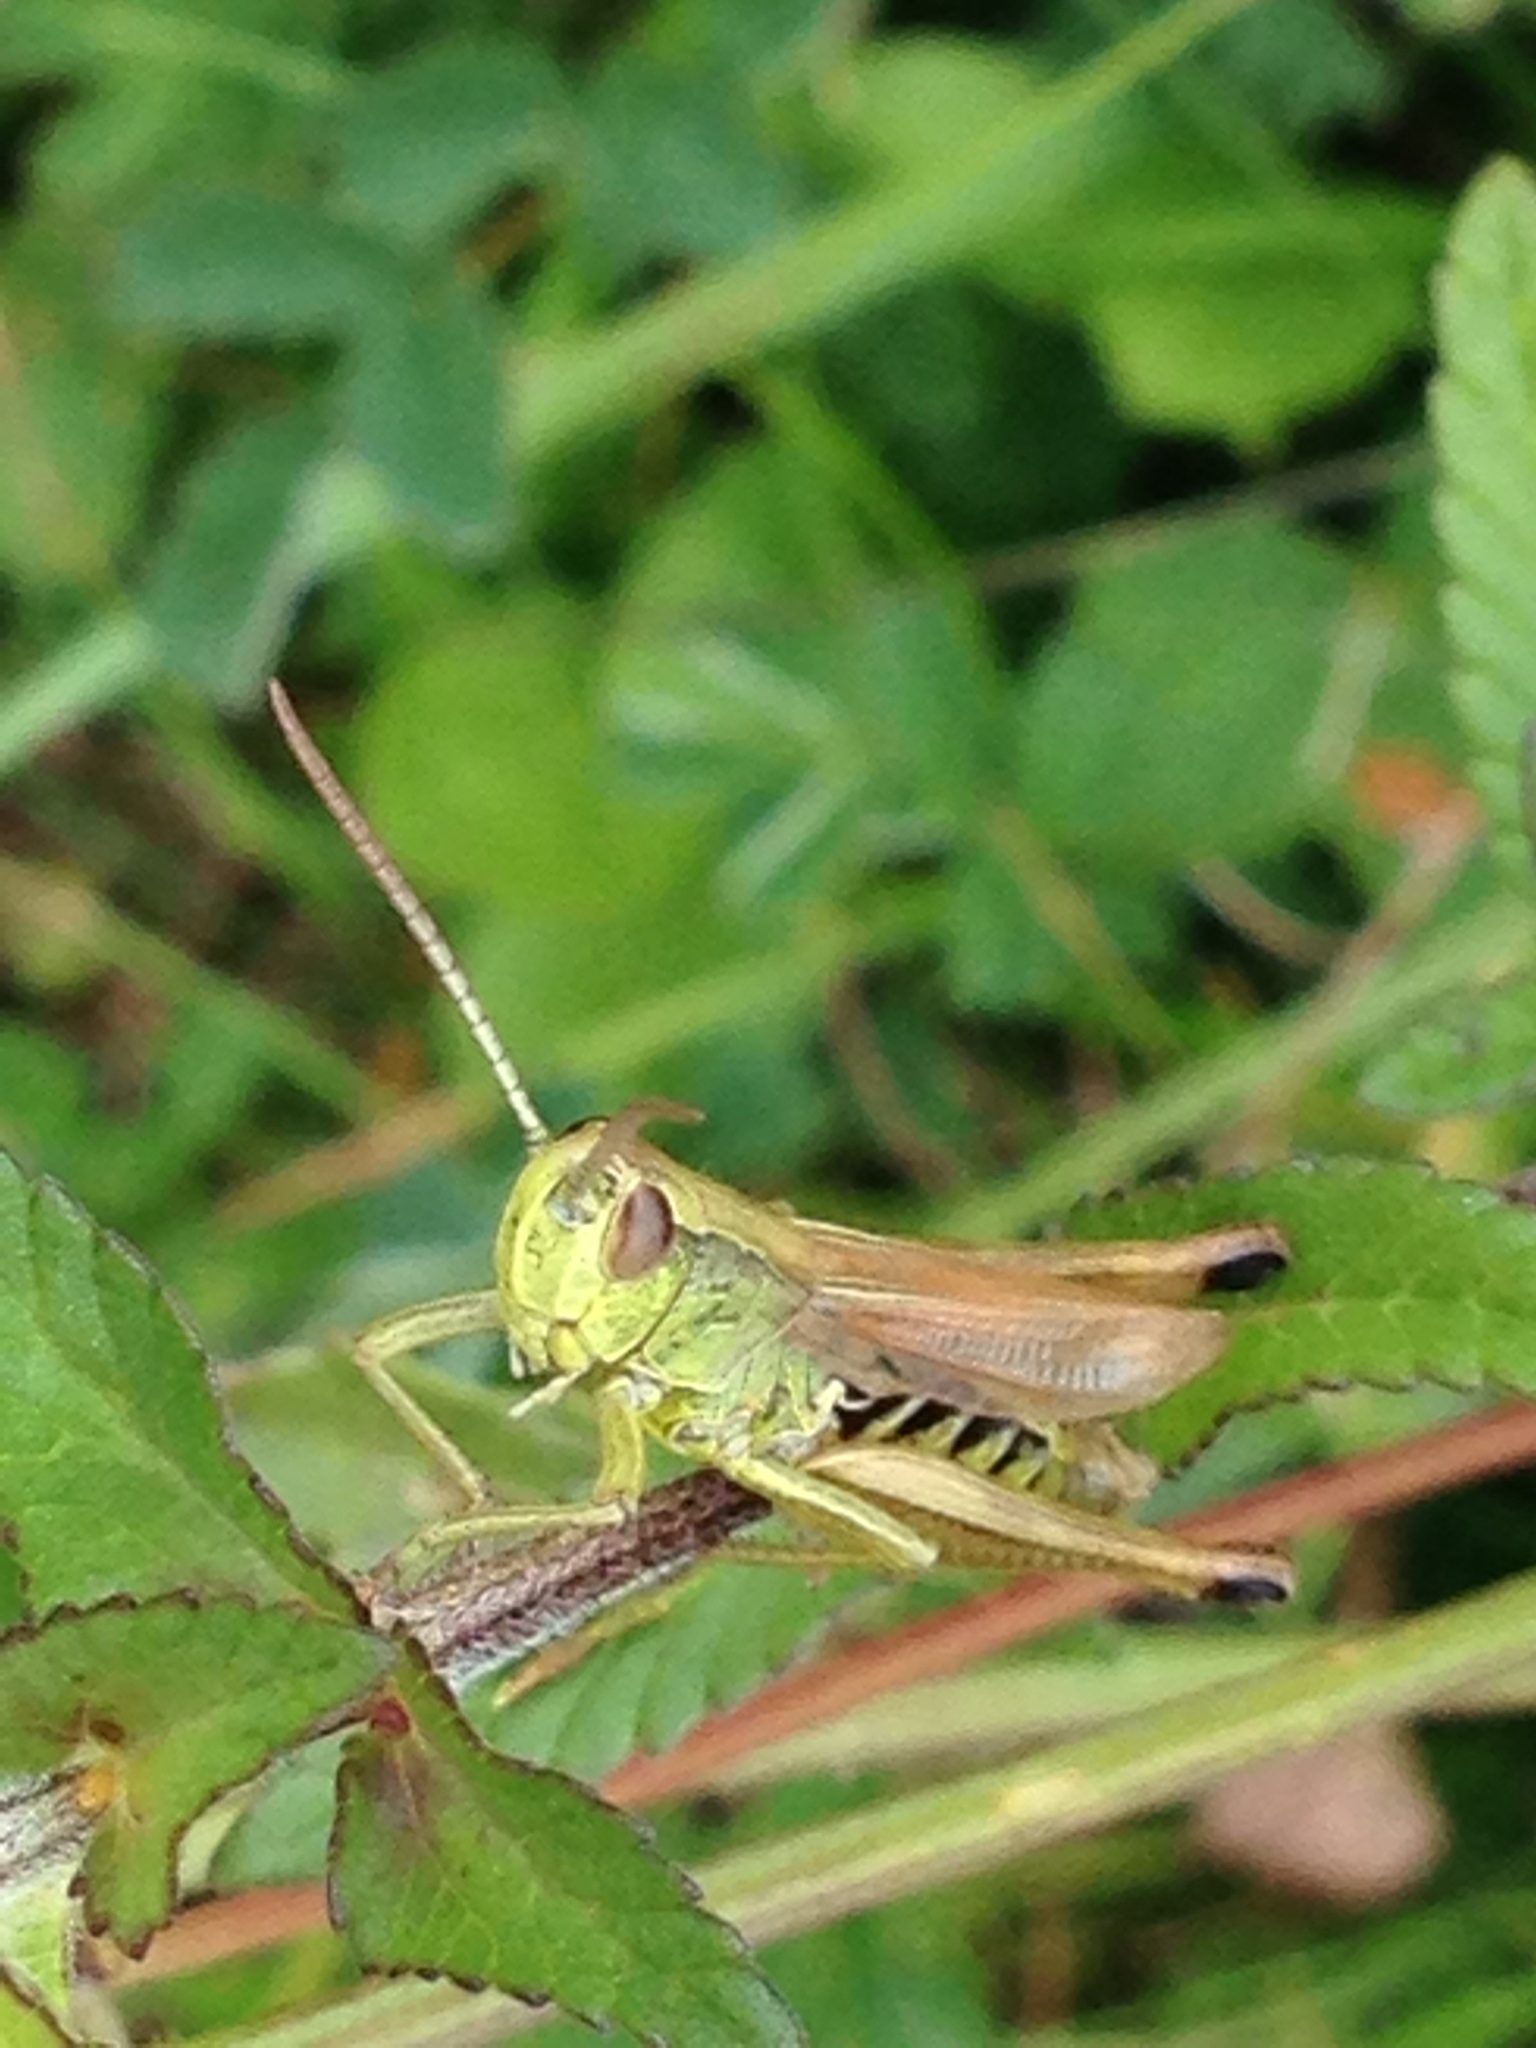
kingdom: Animalia
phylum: Arthropoda
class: Insecta
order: Orthoptera
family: Acrididae
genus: Pseudochorthippus
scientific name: Pseudochorthippus parallelus
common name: Meadow grasshopper
